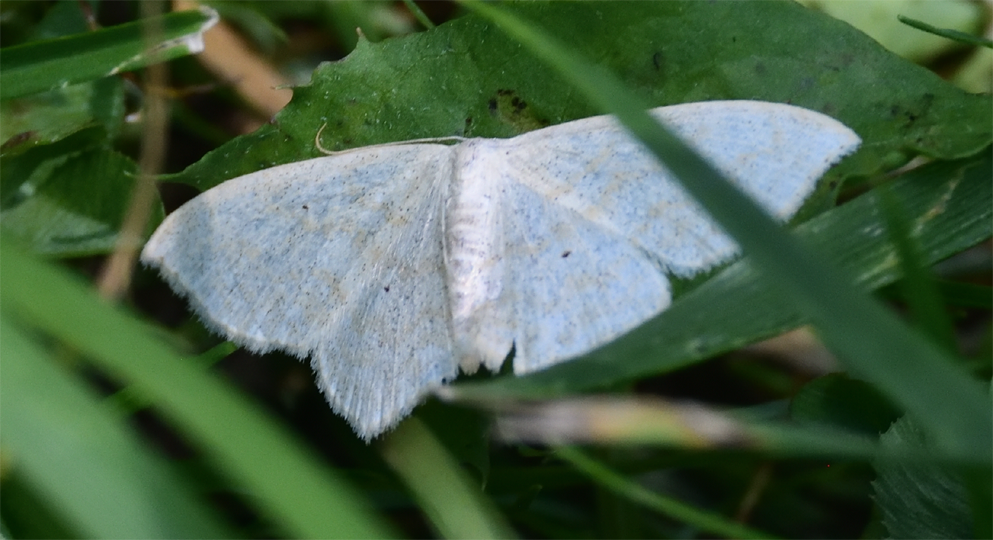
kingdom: Animalia
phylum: Arthropoda
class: Insecta
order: Lepidoptera
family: Geometridae
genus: Scopula
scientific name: Scopula limboundata
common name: Large lace border
